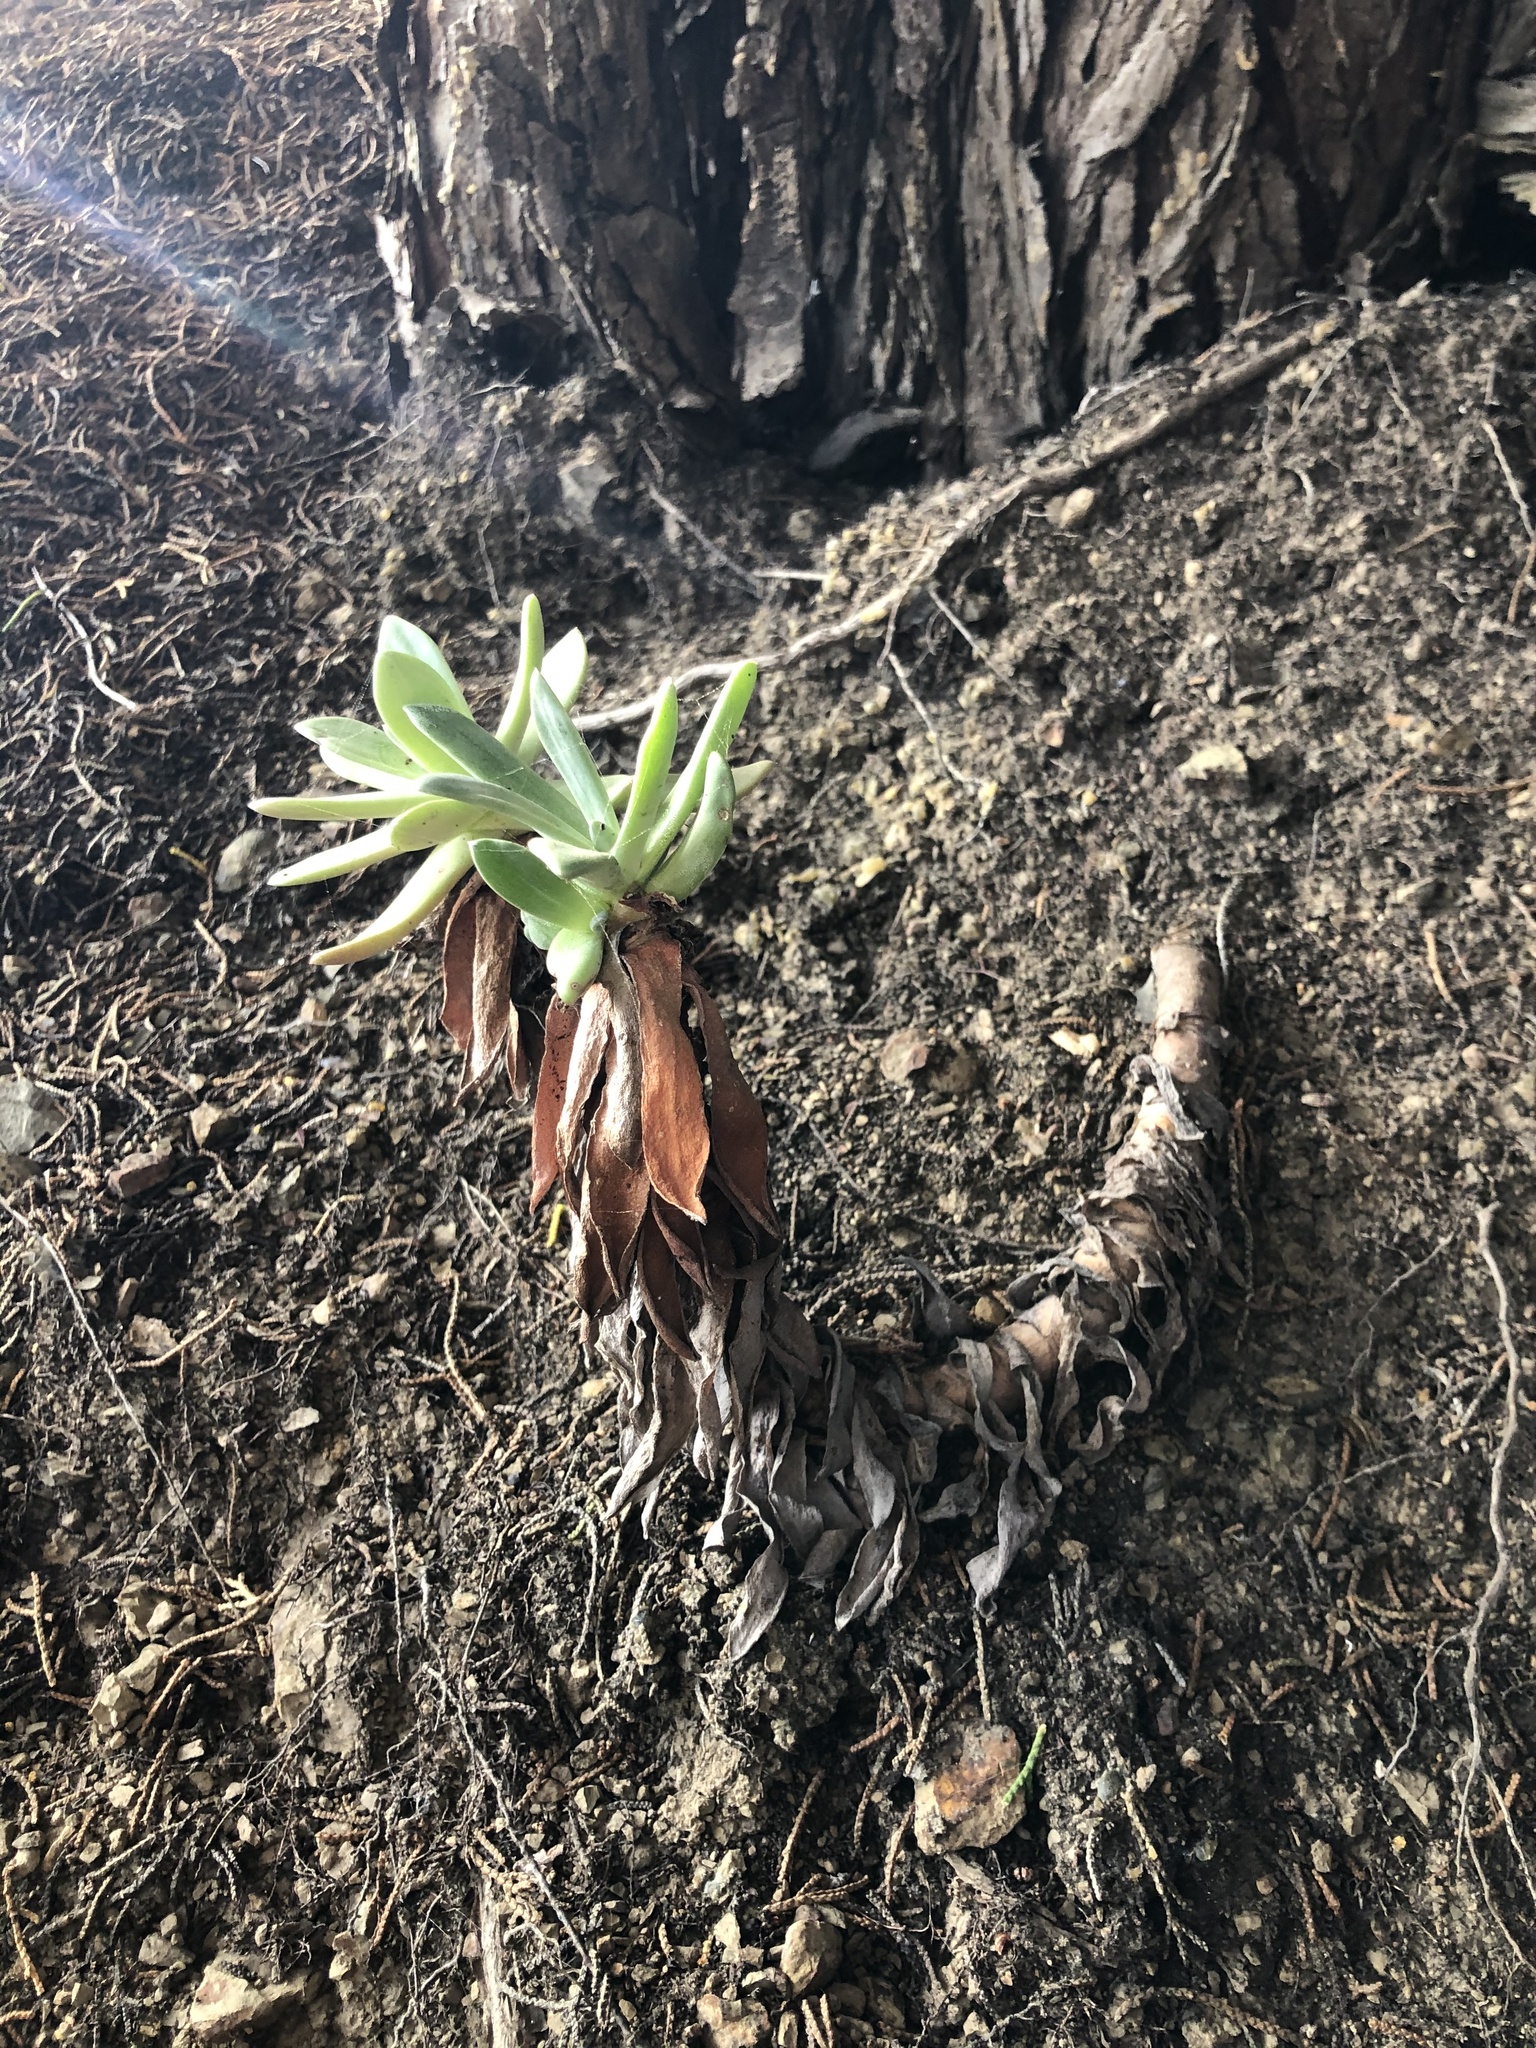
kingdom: Plantae
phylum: Tracheophyta
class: Magnoliopsida
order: Saxifragales
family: Crassulaceae
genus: Dudleya
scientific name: Dudleya caespitosa
